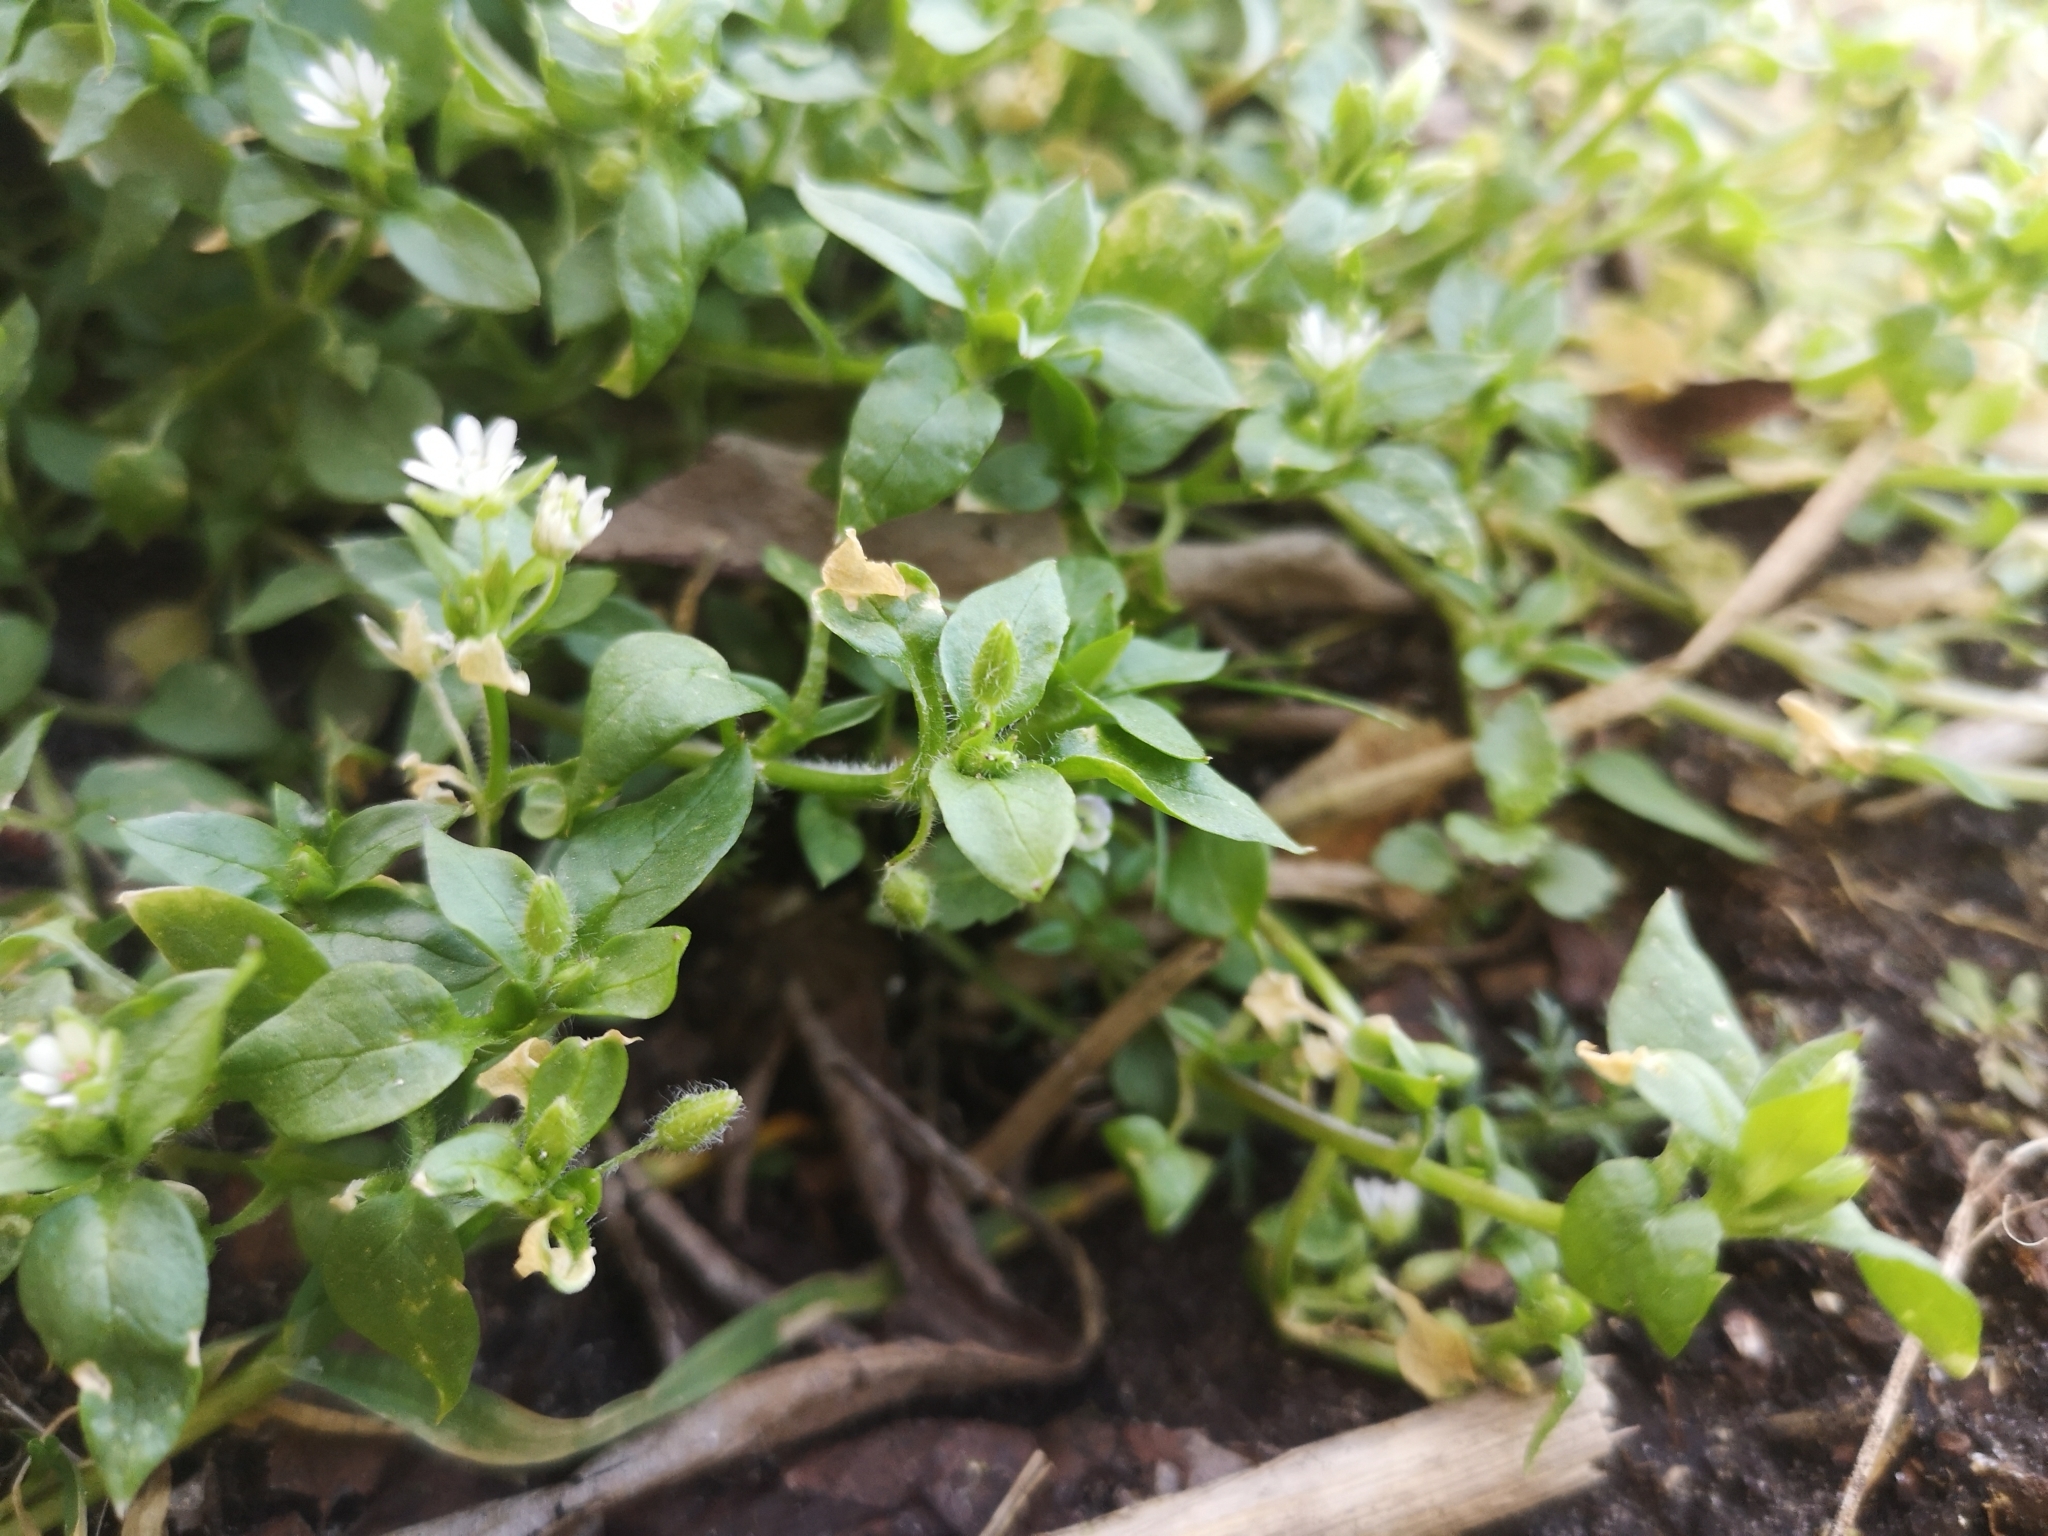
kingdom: Plantae
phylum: Tracheophyta
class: Magnoliopsida
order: Caryophyllales
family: Caryophyllaceae
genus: Stellaria
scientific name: Stellaria media
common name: Common chickweed
